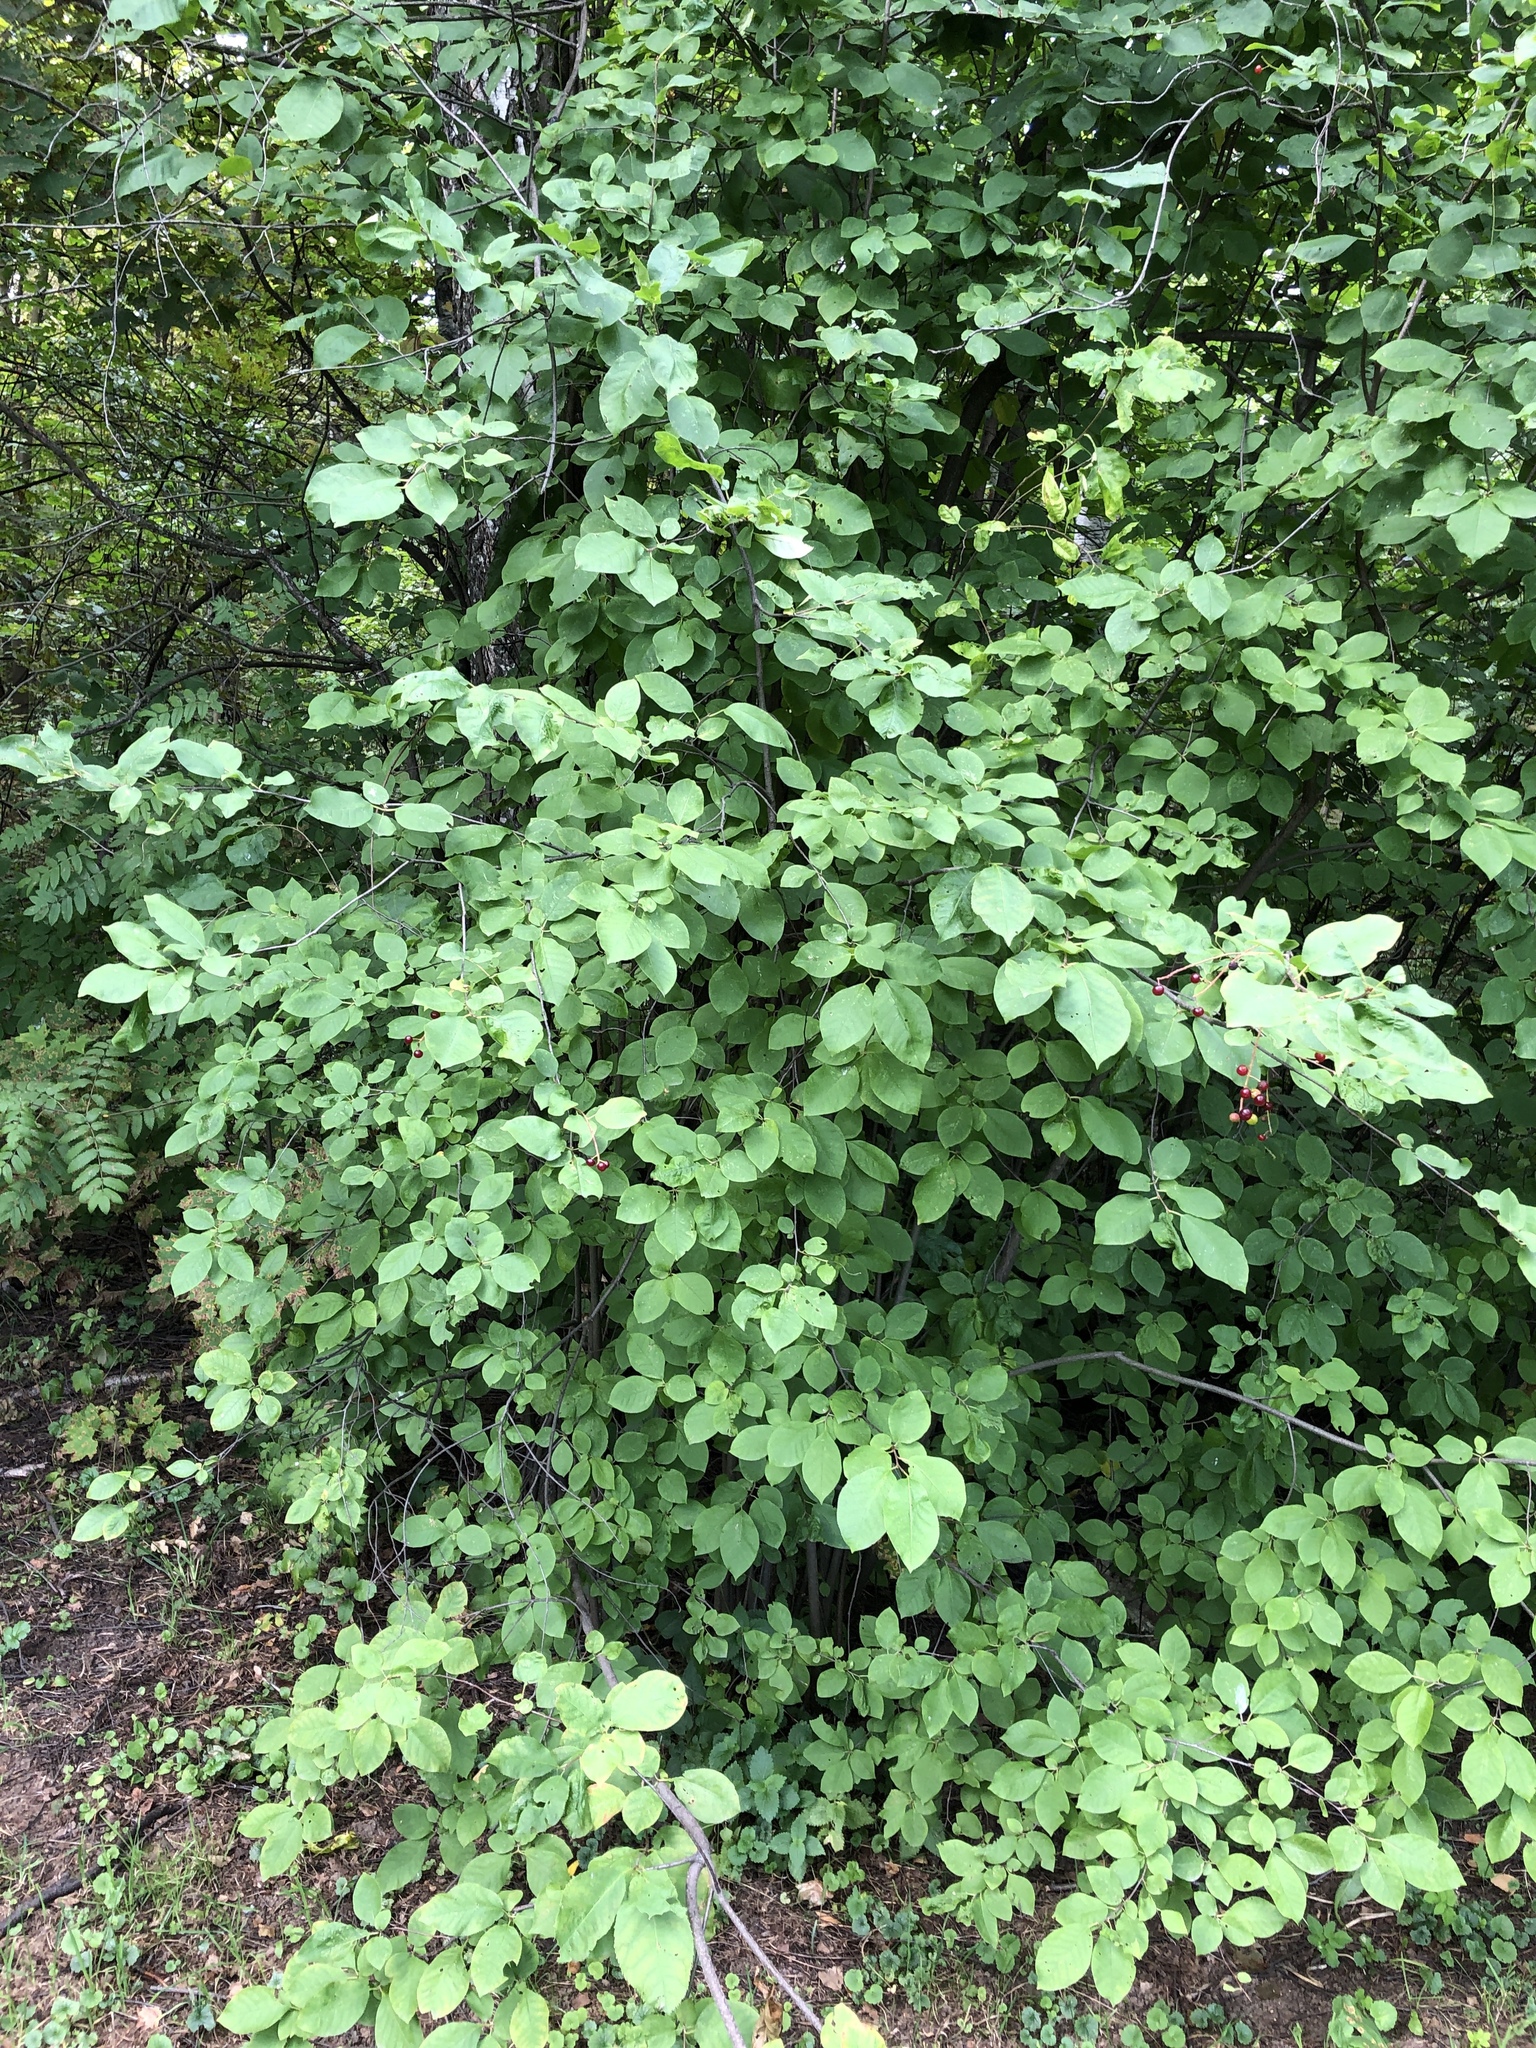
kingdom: Plantae
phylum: Tracheophyta
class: Magnoliopsida
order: Rosales
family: Rosaceae
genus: Prunus
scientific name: Prunus padus
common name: Bird cherry
